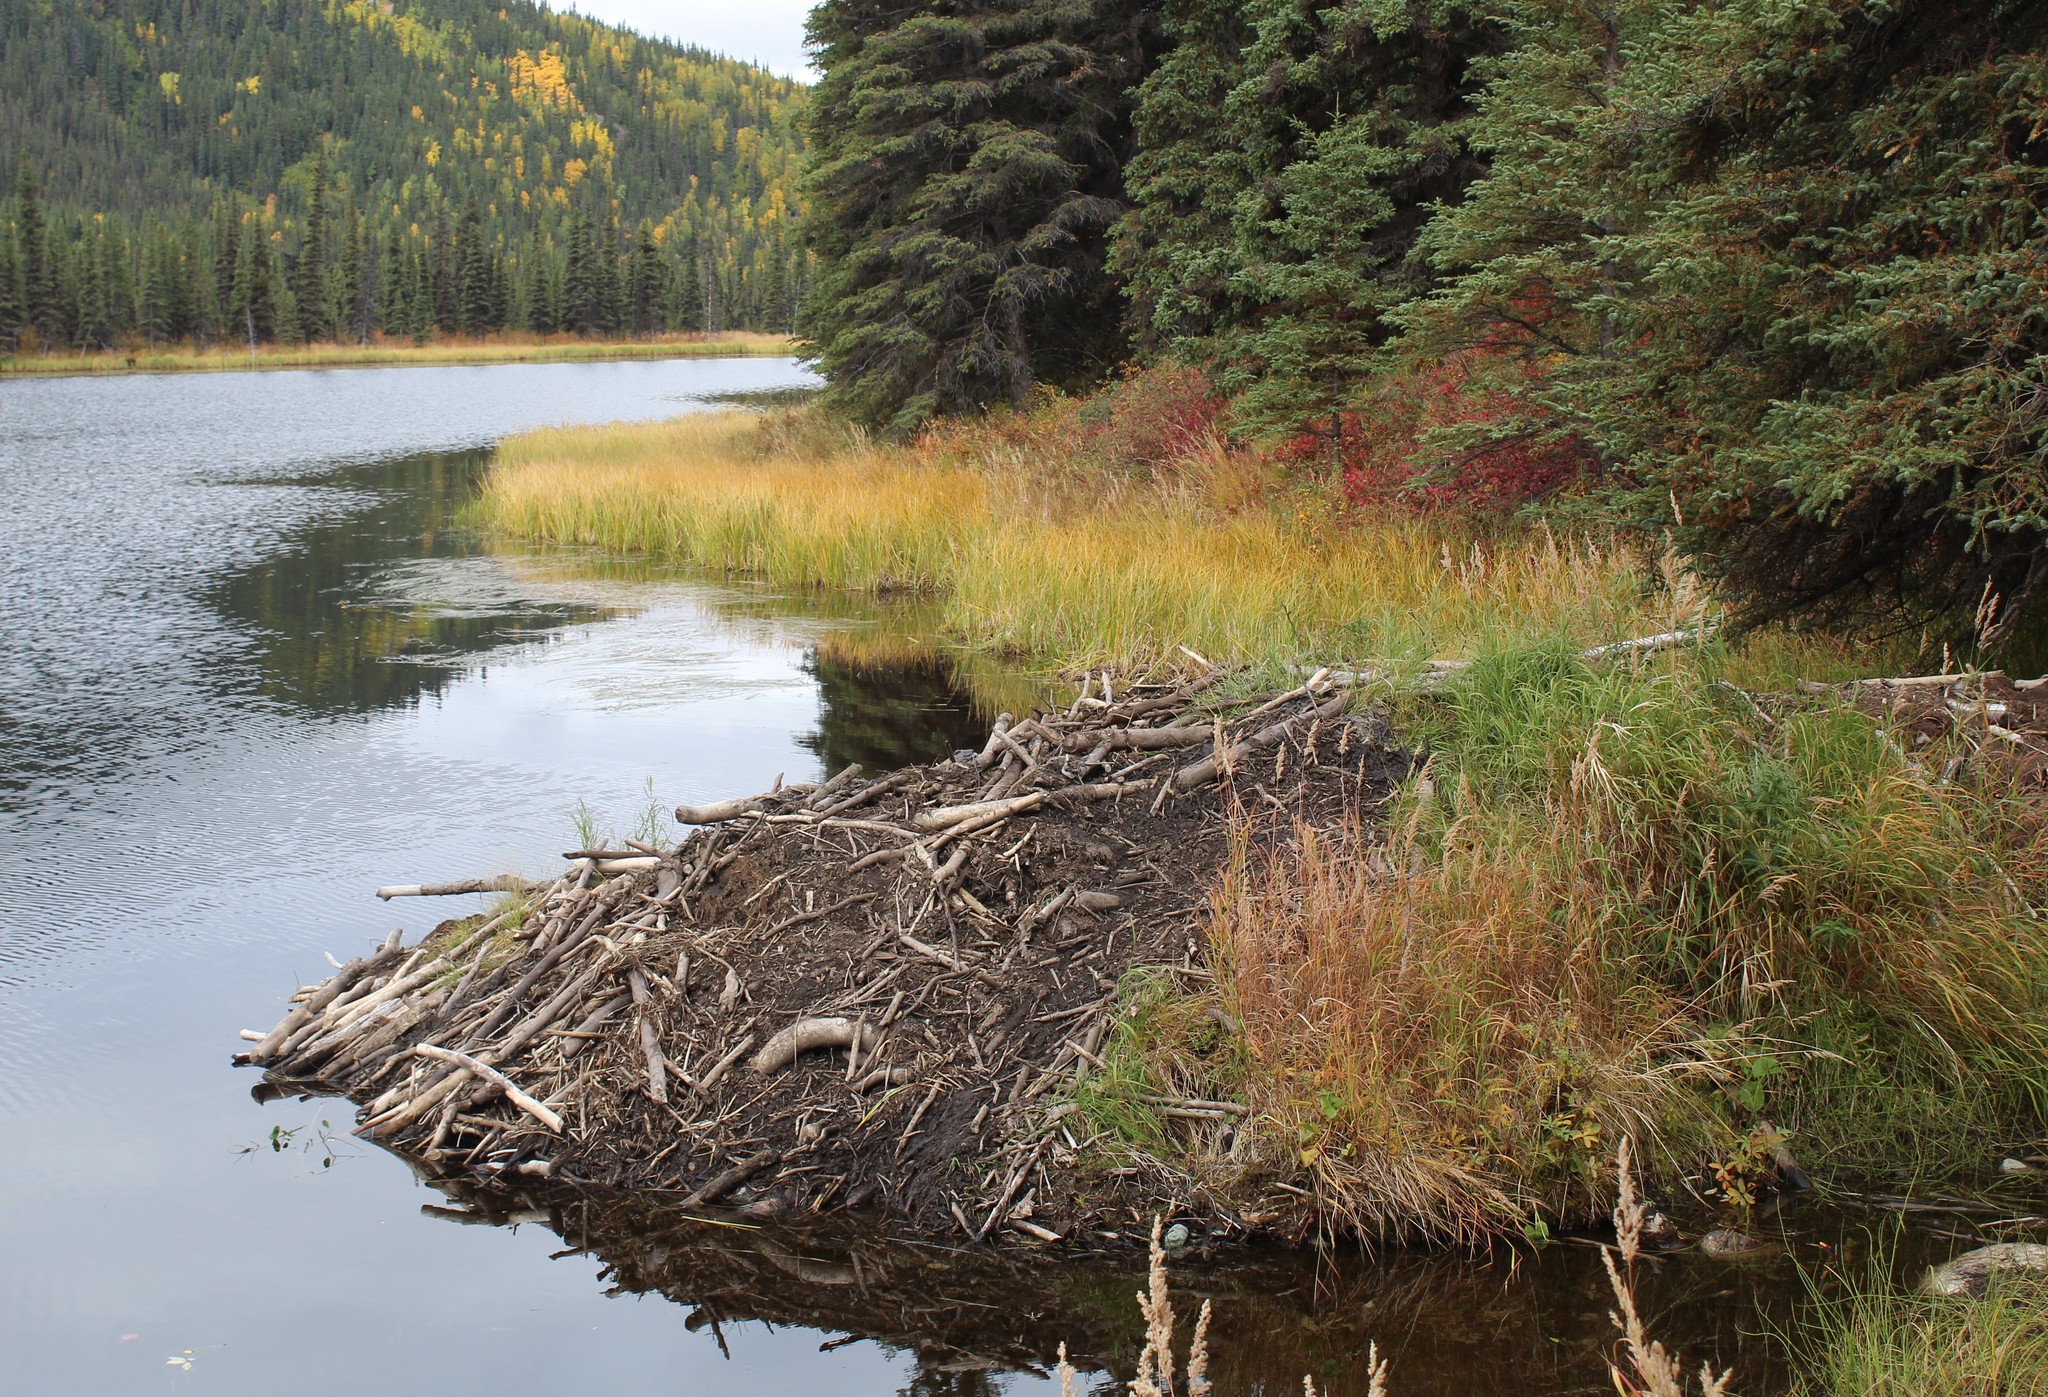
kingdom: Animalia
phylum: Chordata
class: Mammalia
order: Rodentia
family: Castoridae
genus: Castor
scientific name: Castor canadensis
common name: American beaver
